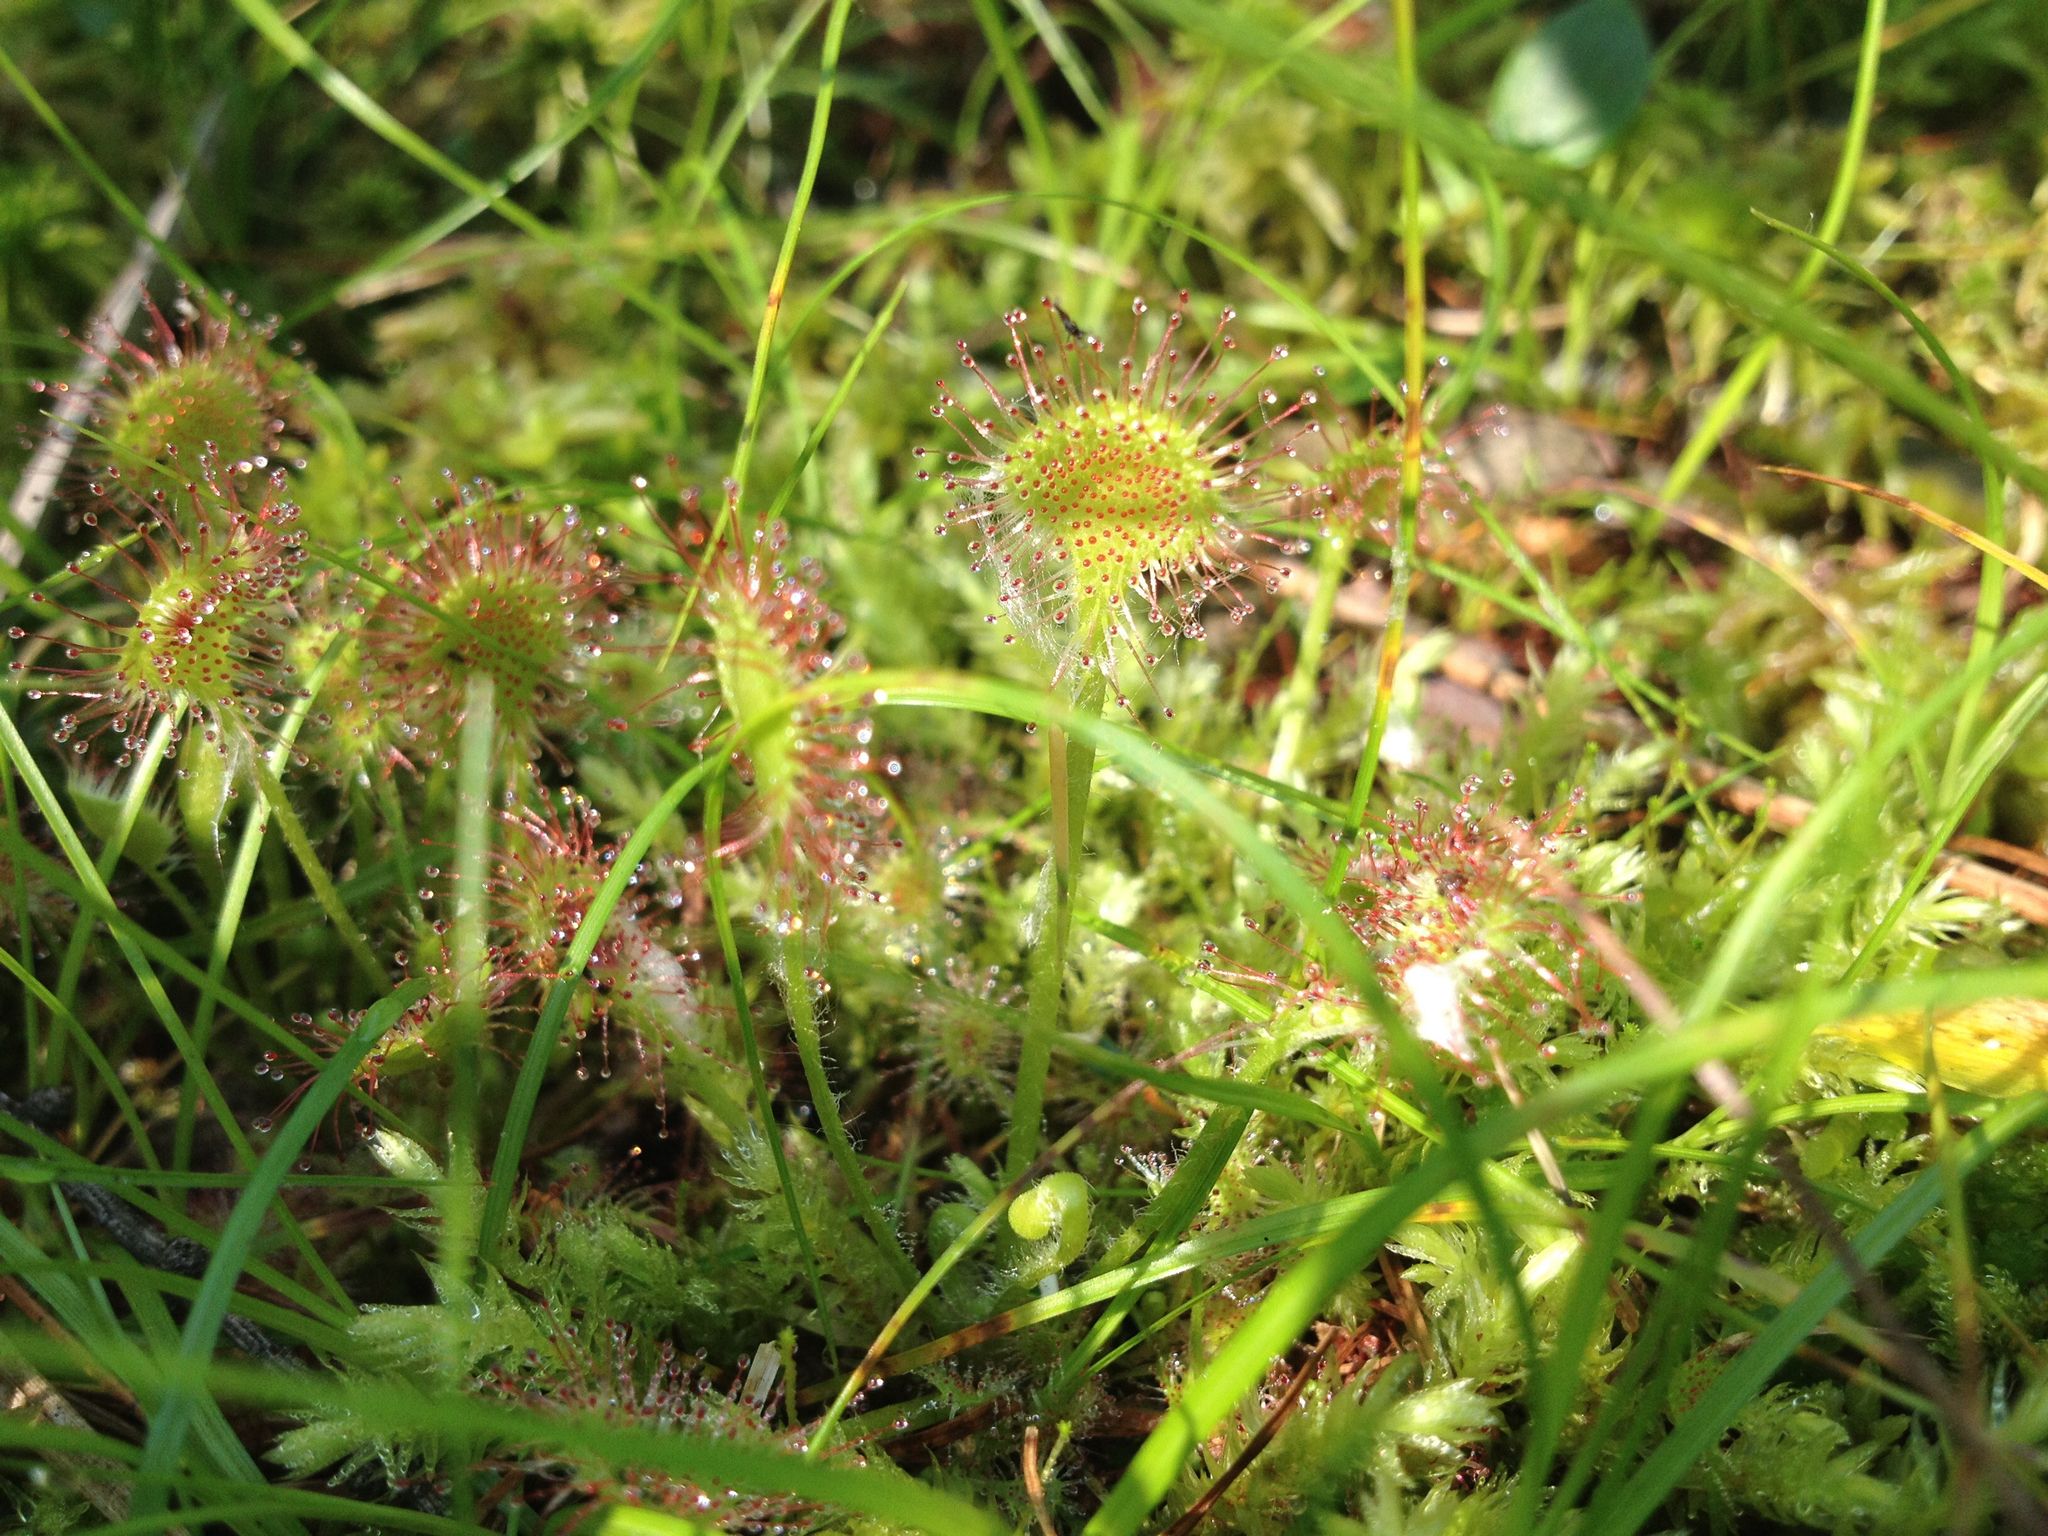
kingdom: Plantae
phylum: Tracheophyta
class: Magnoliopsida
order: Caryophyllales
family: Droseraceae
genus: Drosera
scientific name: Drosera rotundifolia
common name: Round-leaved sundew
